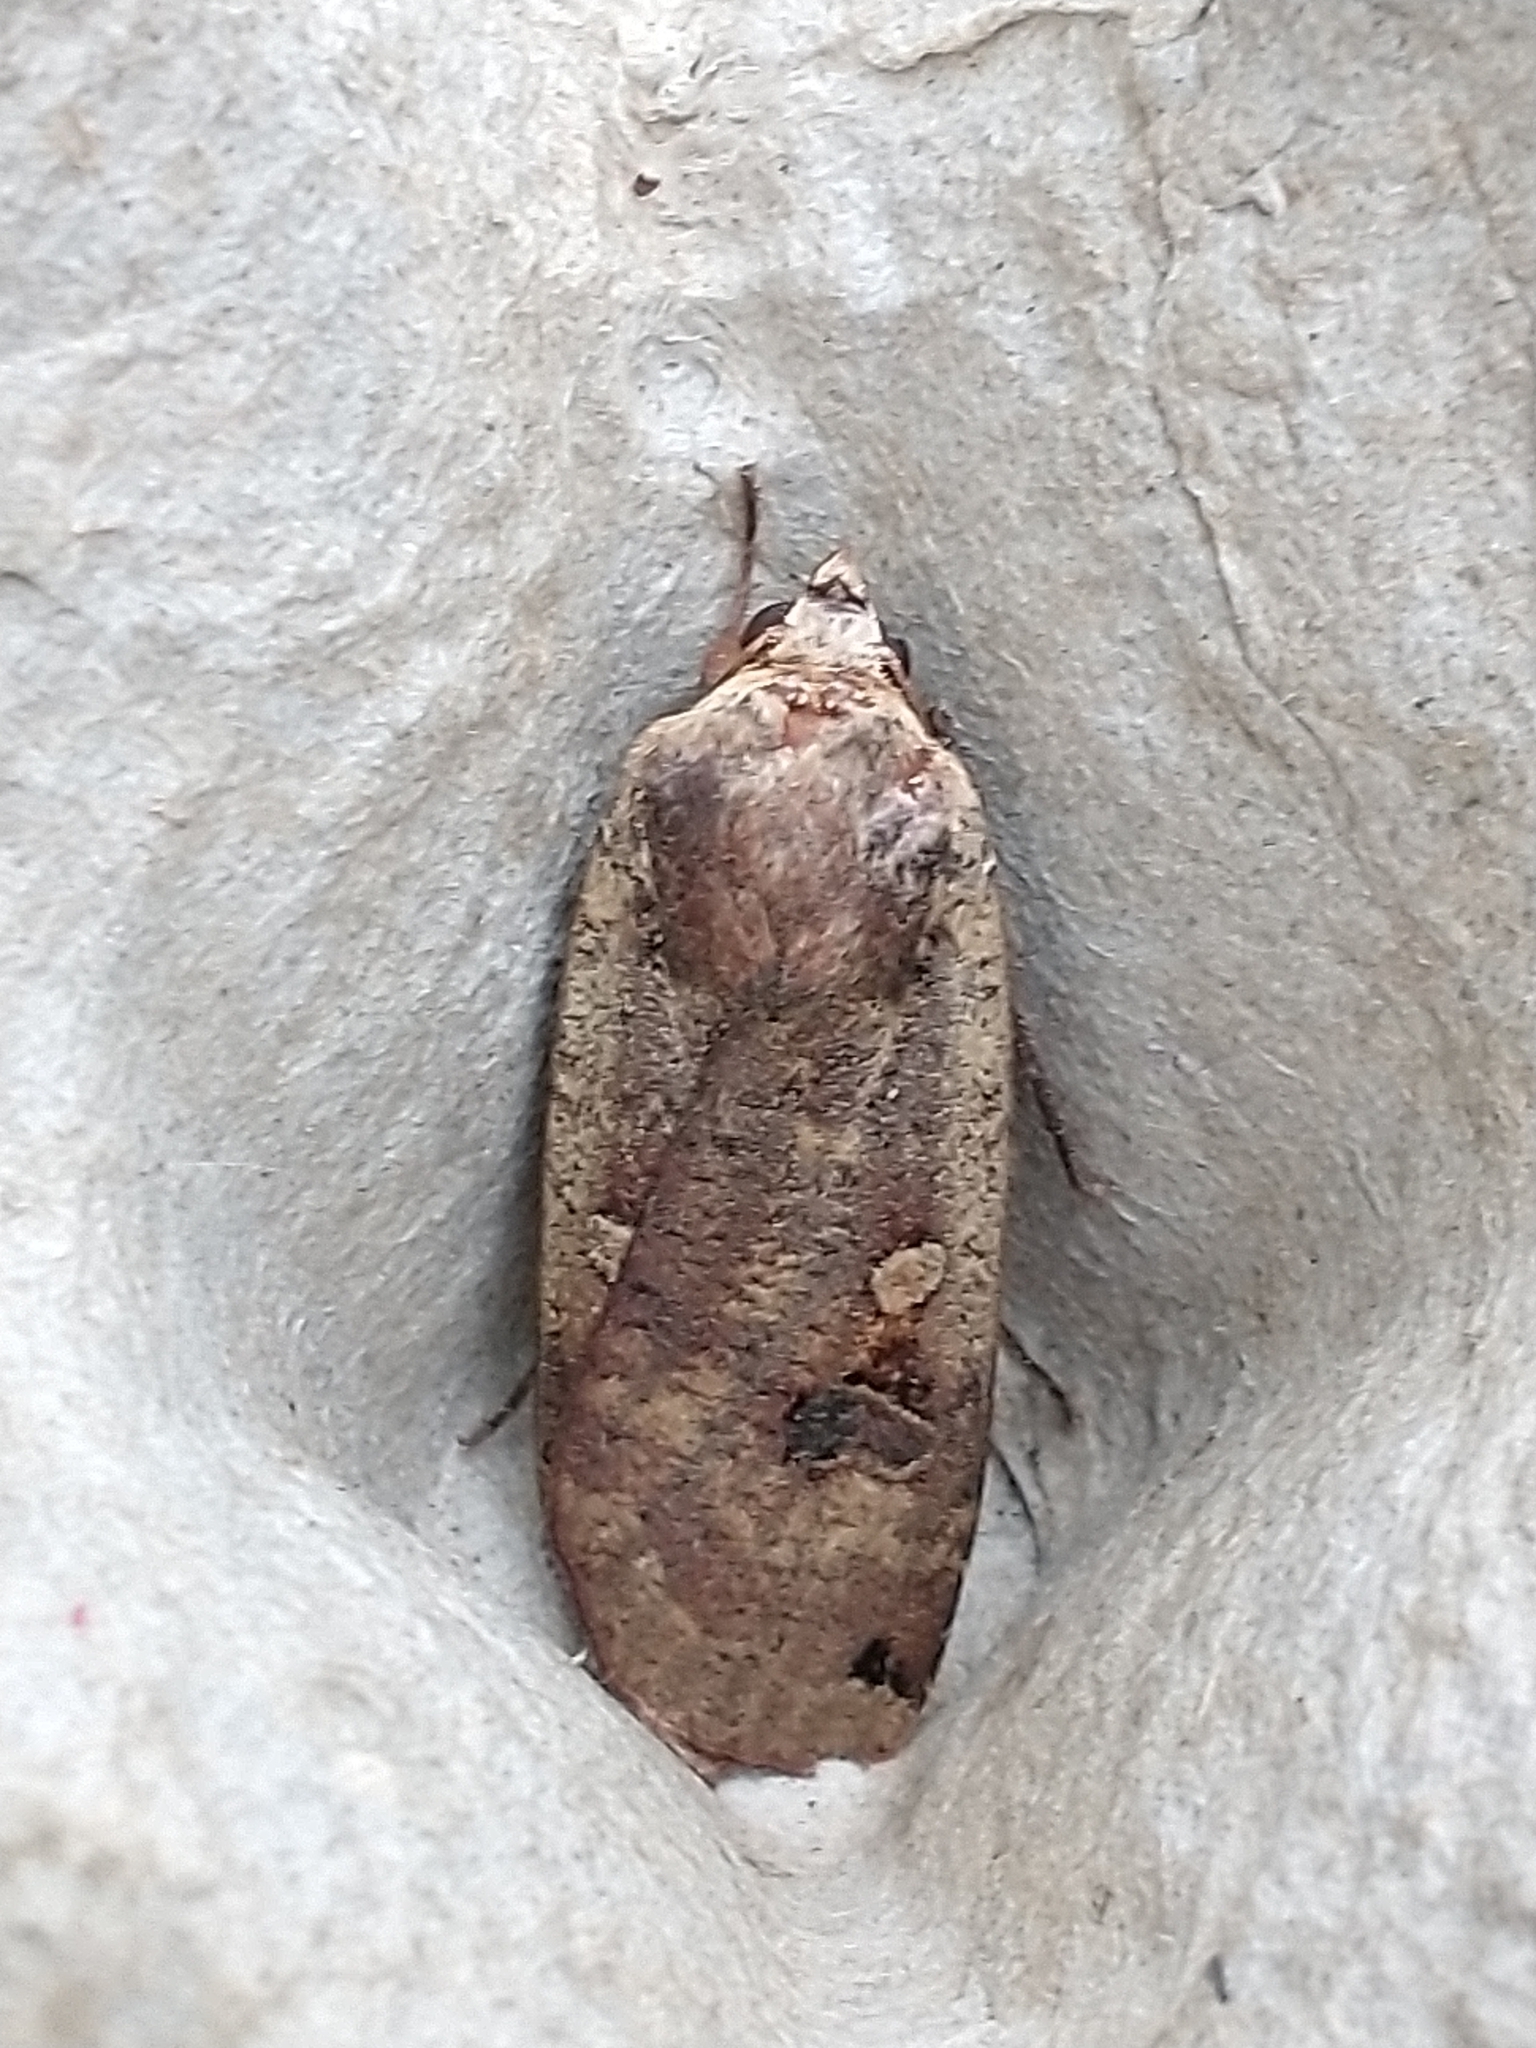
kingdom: Animalia
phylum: Arthropoda
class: Insecta
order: Lepidoptera
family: Noctuidae
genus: Noctua
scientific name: Noctua pronuba
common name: Large yellow underwing
